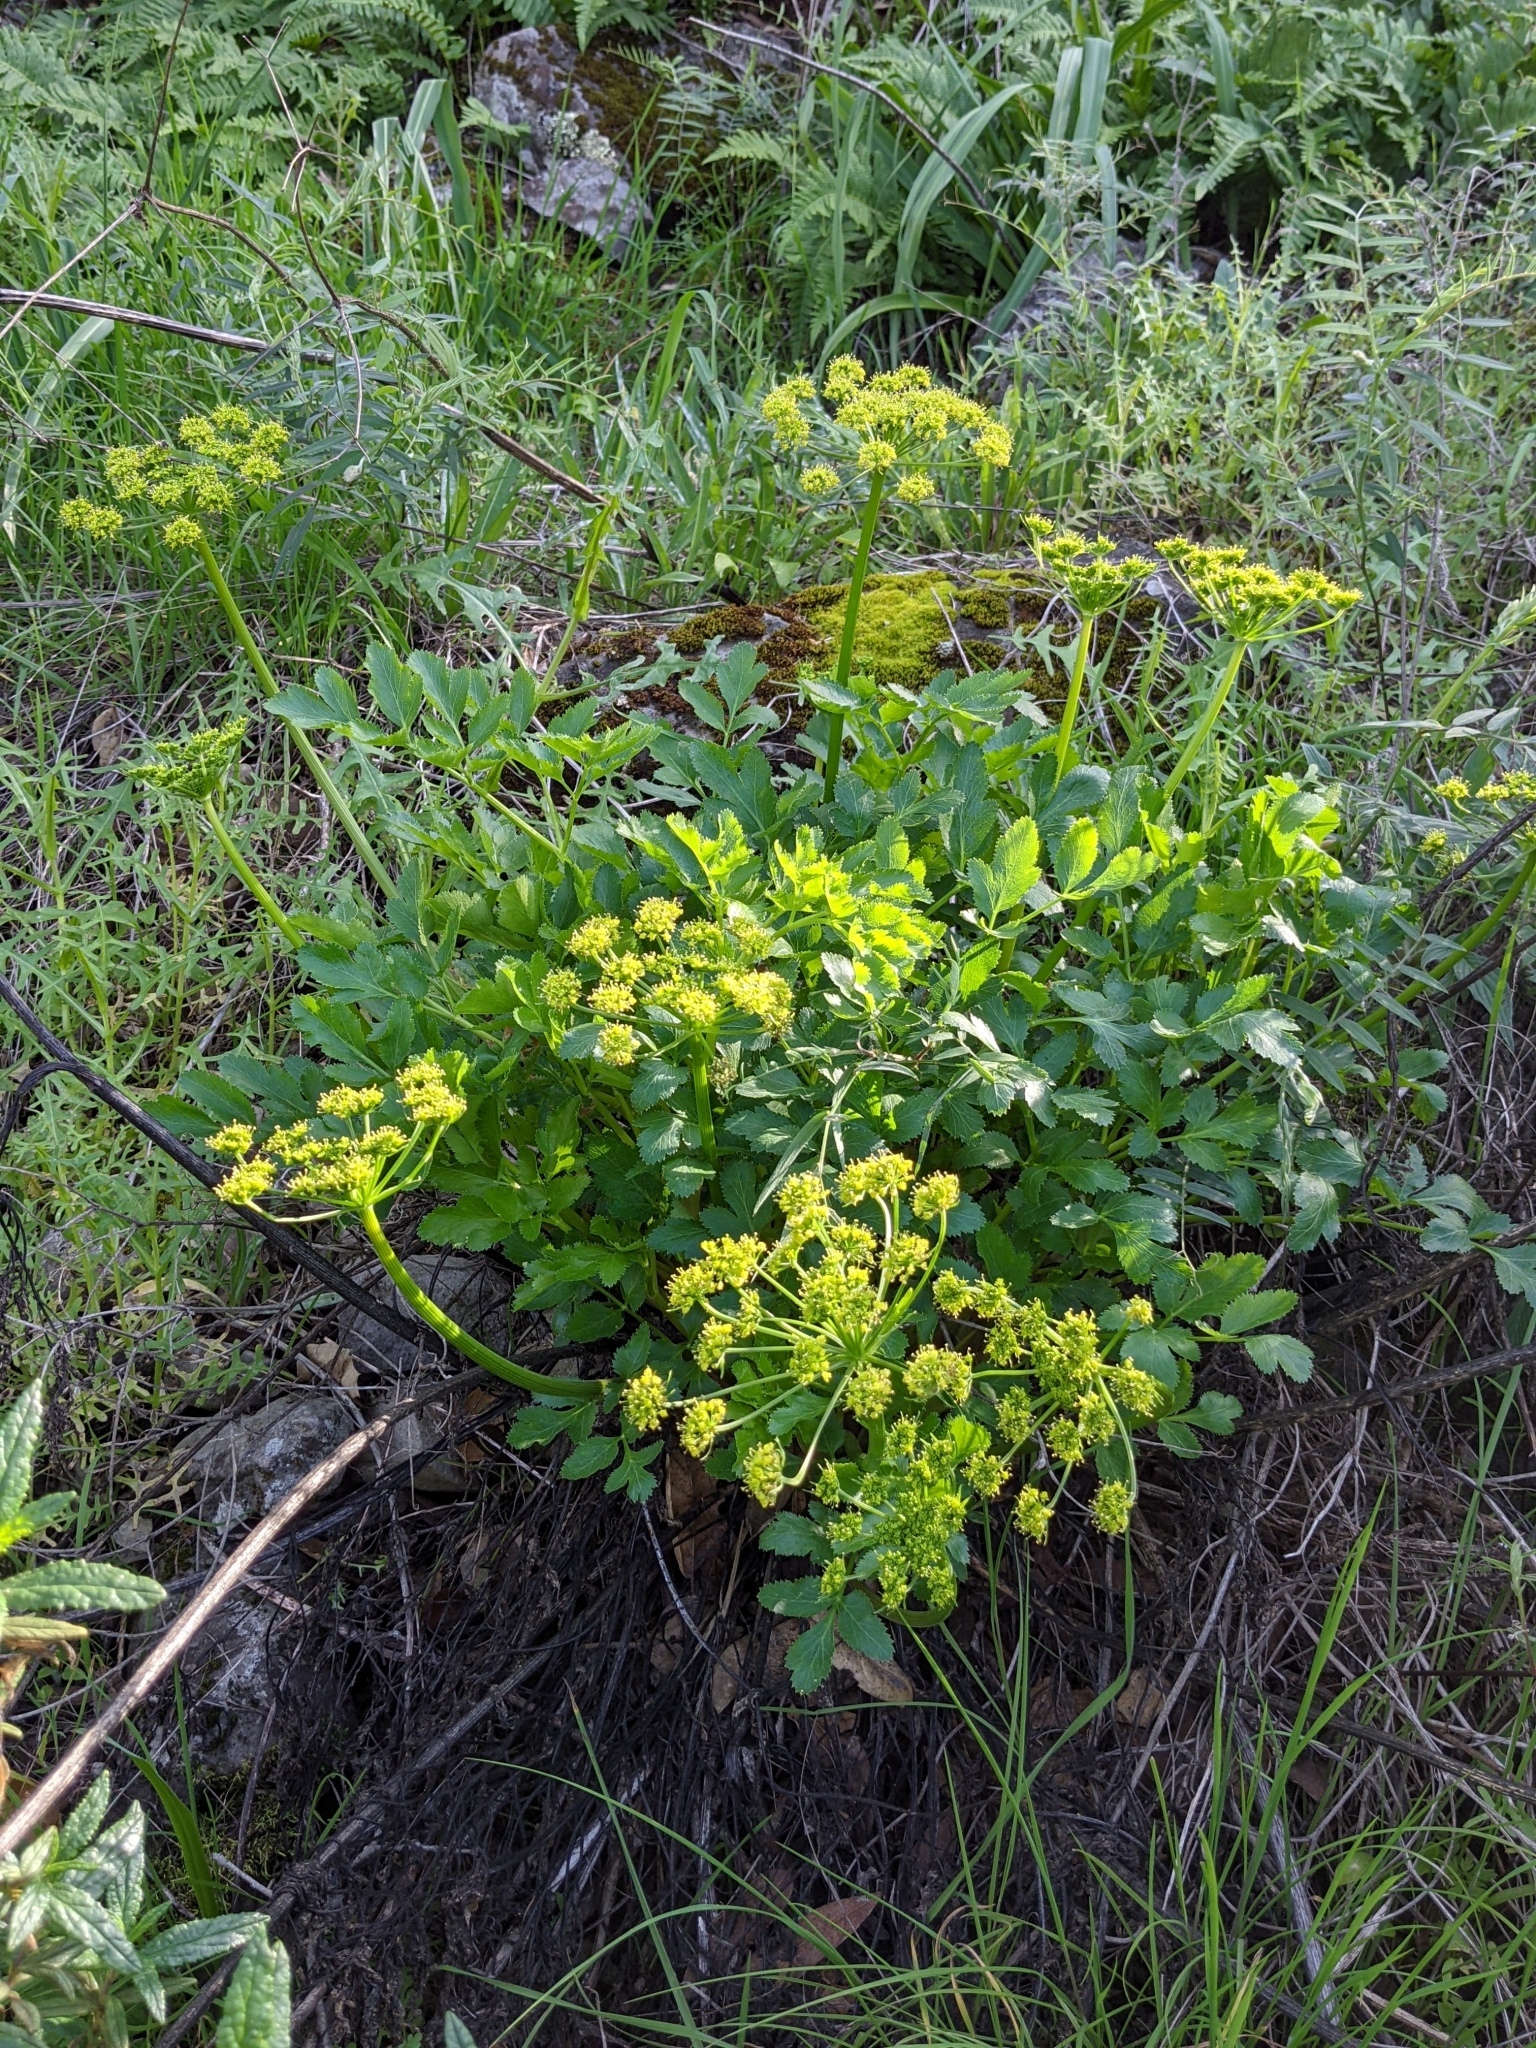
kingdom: Plantae
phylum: Tracheophyta
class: Magnoliopsida
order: Apiales
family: Apiaceae
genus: Tauschia
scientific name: Tauschia hartwegii
